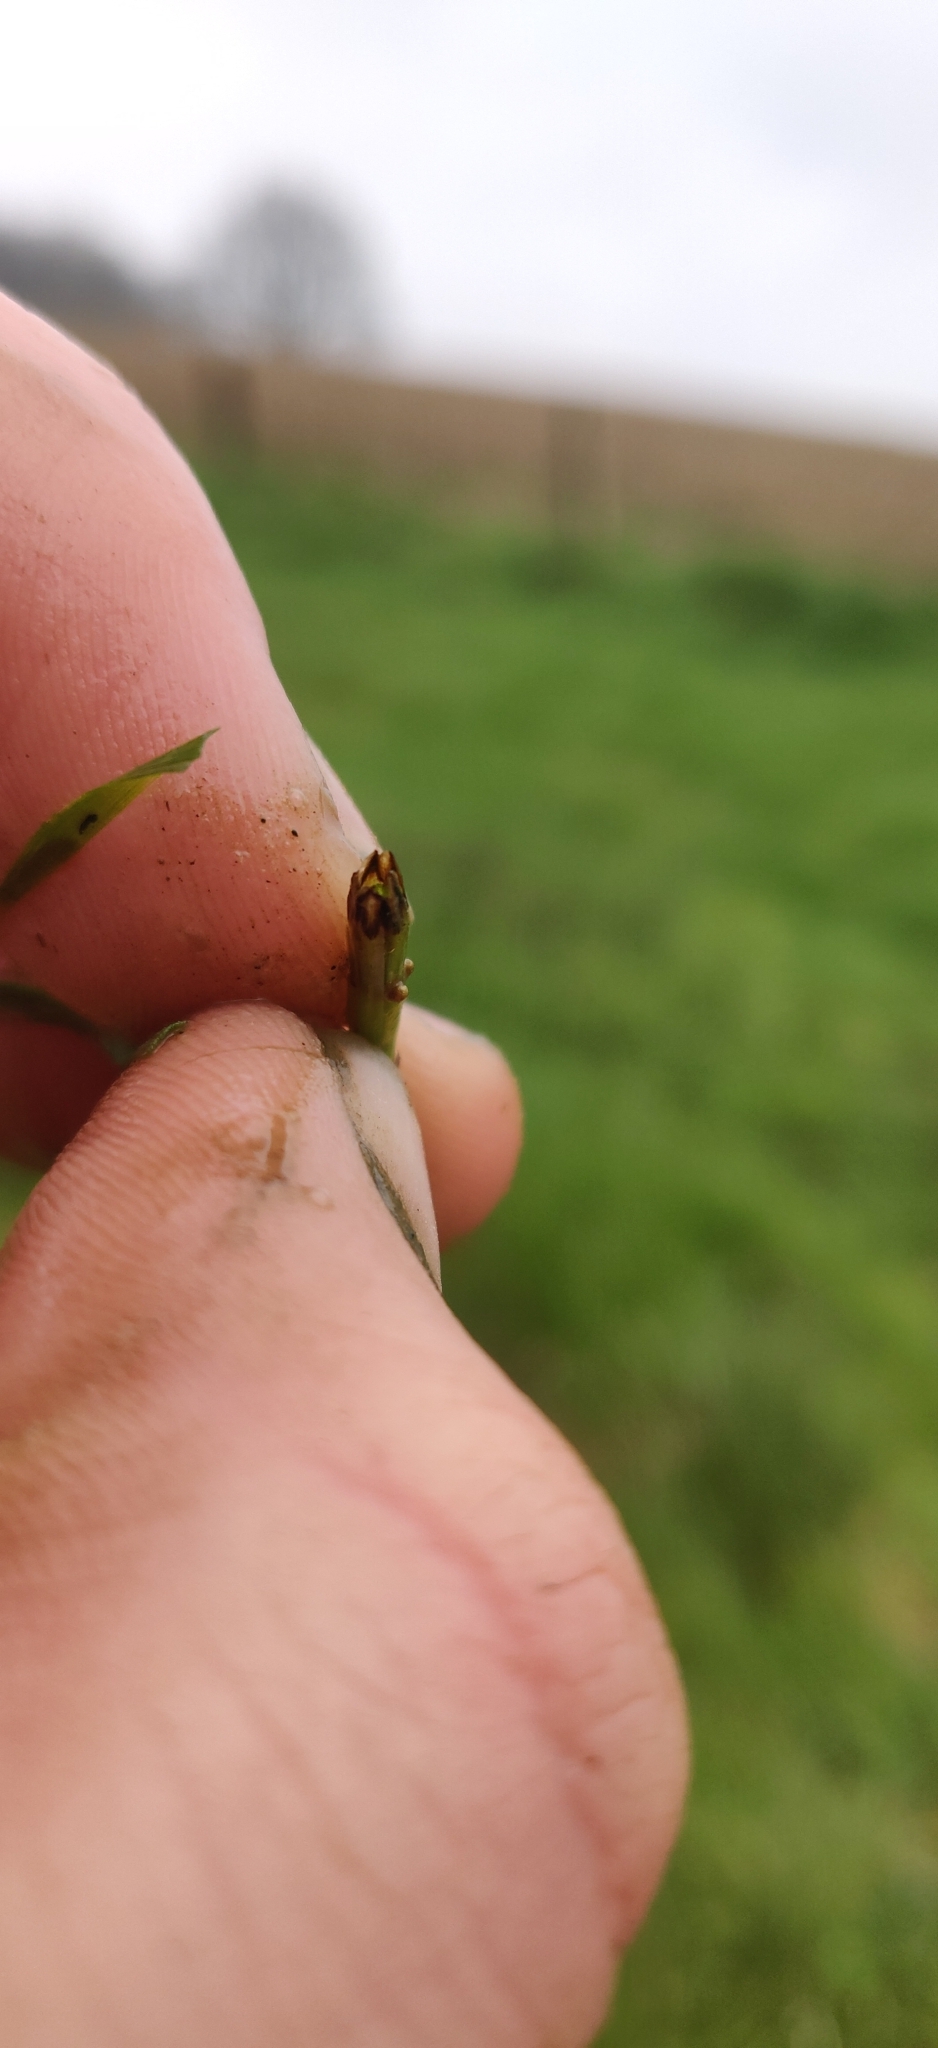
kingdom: Plantae
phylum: Tracheophyta
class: Polypodiopsida
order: Equisetales
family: Equisetaceae
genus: Equisetum
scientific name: Equisetum palustre
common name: Marsh horsetail
